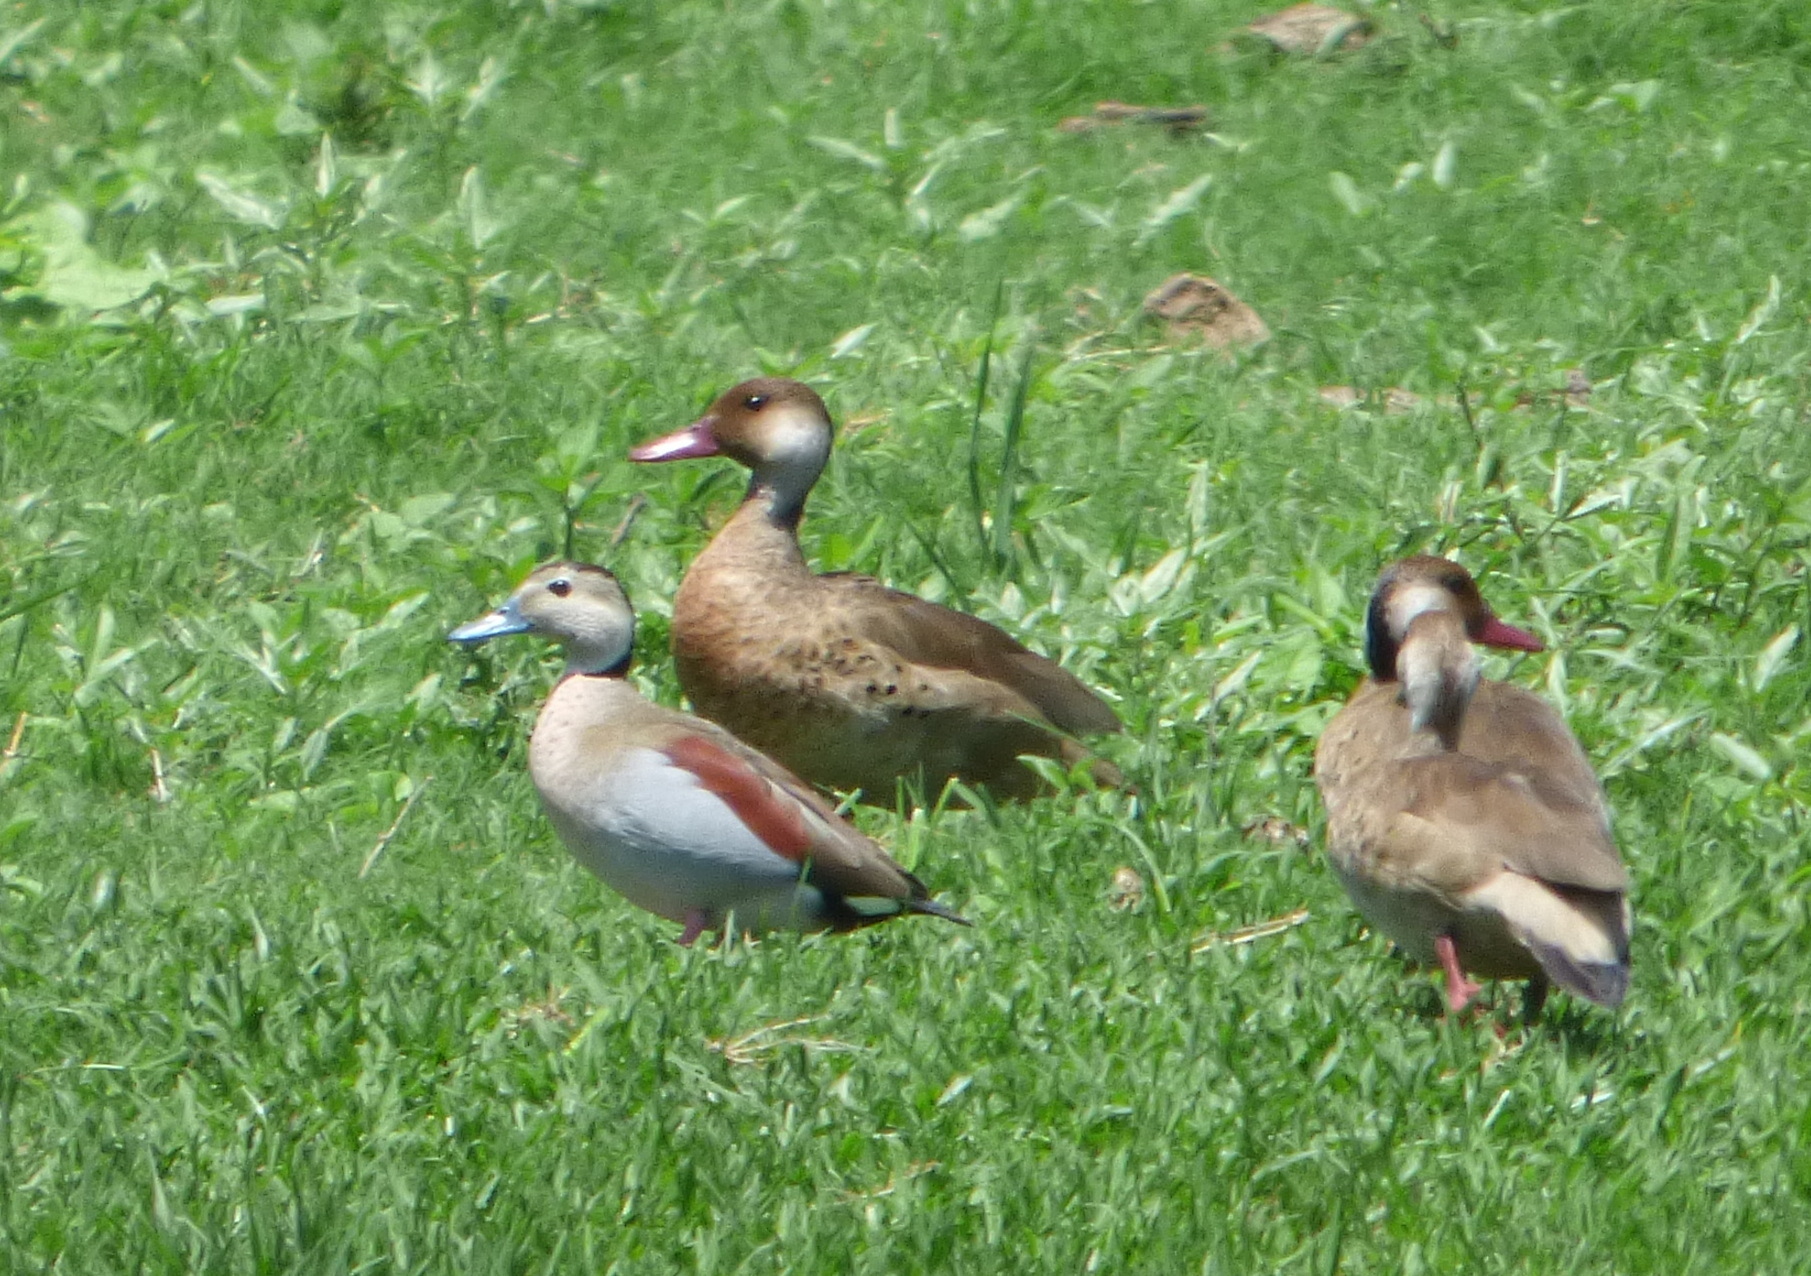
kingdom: Animalia
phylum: Chordata
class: Aves
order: Anseriformes
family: Anatidae
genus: Callonetta
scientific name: Callonetta leucophrys
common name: Ringed teal
